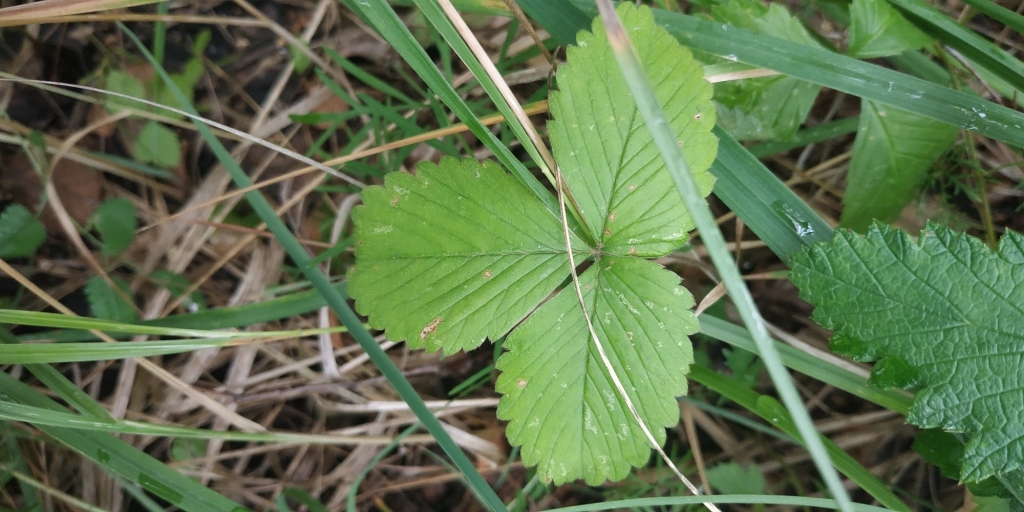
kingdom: Plantae
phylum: Tracheophyta
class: Magnoliopsida
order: Rosales
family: Rosaceae
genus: Fragaria
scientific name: Fragaria viridis
